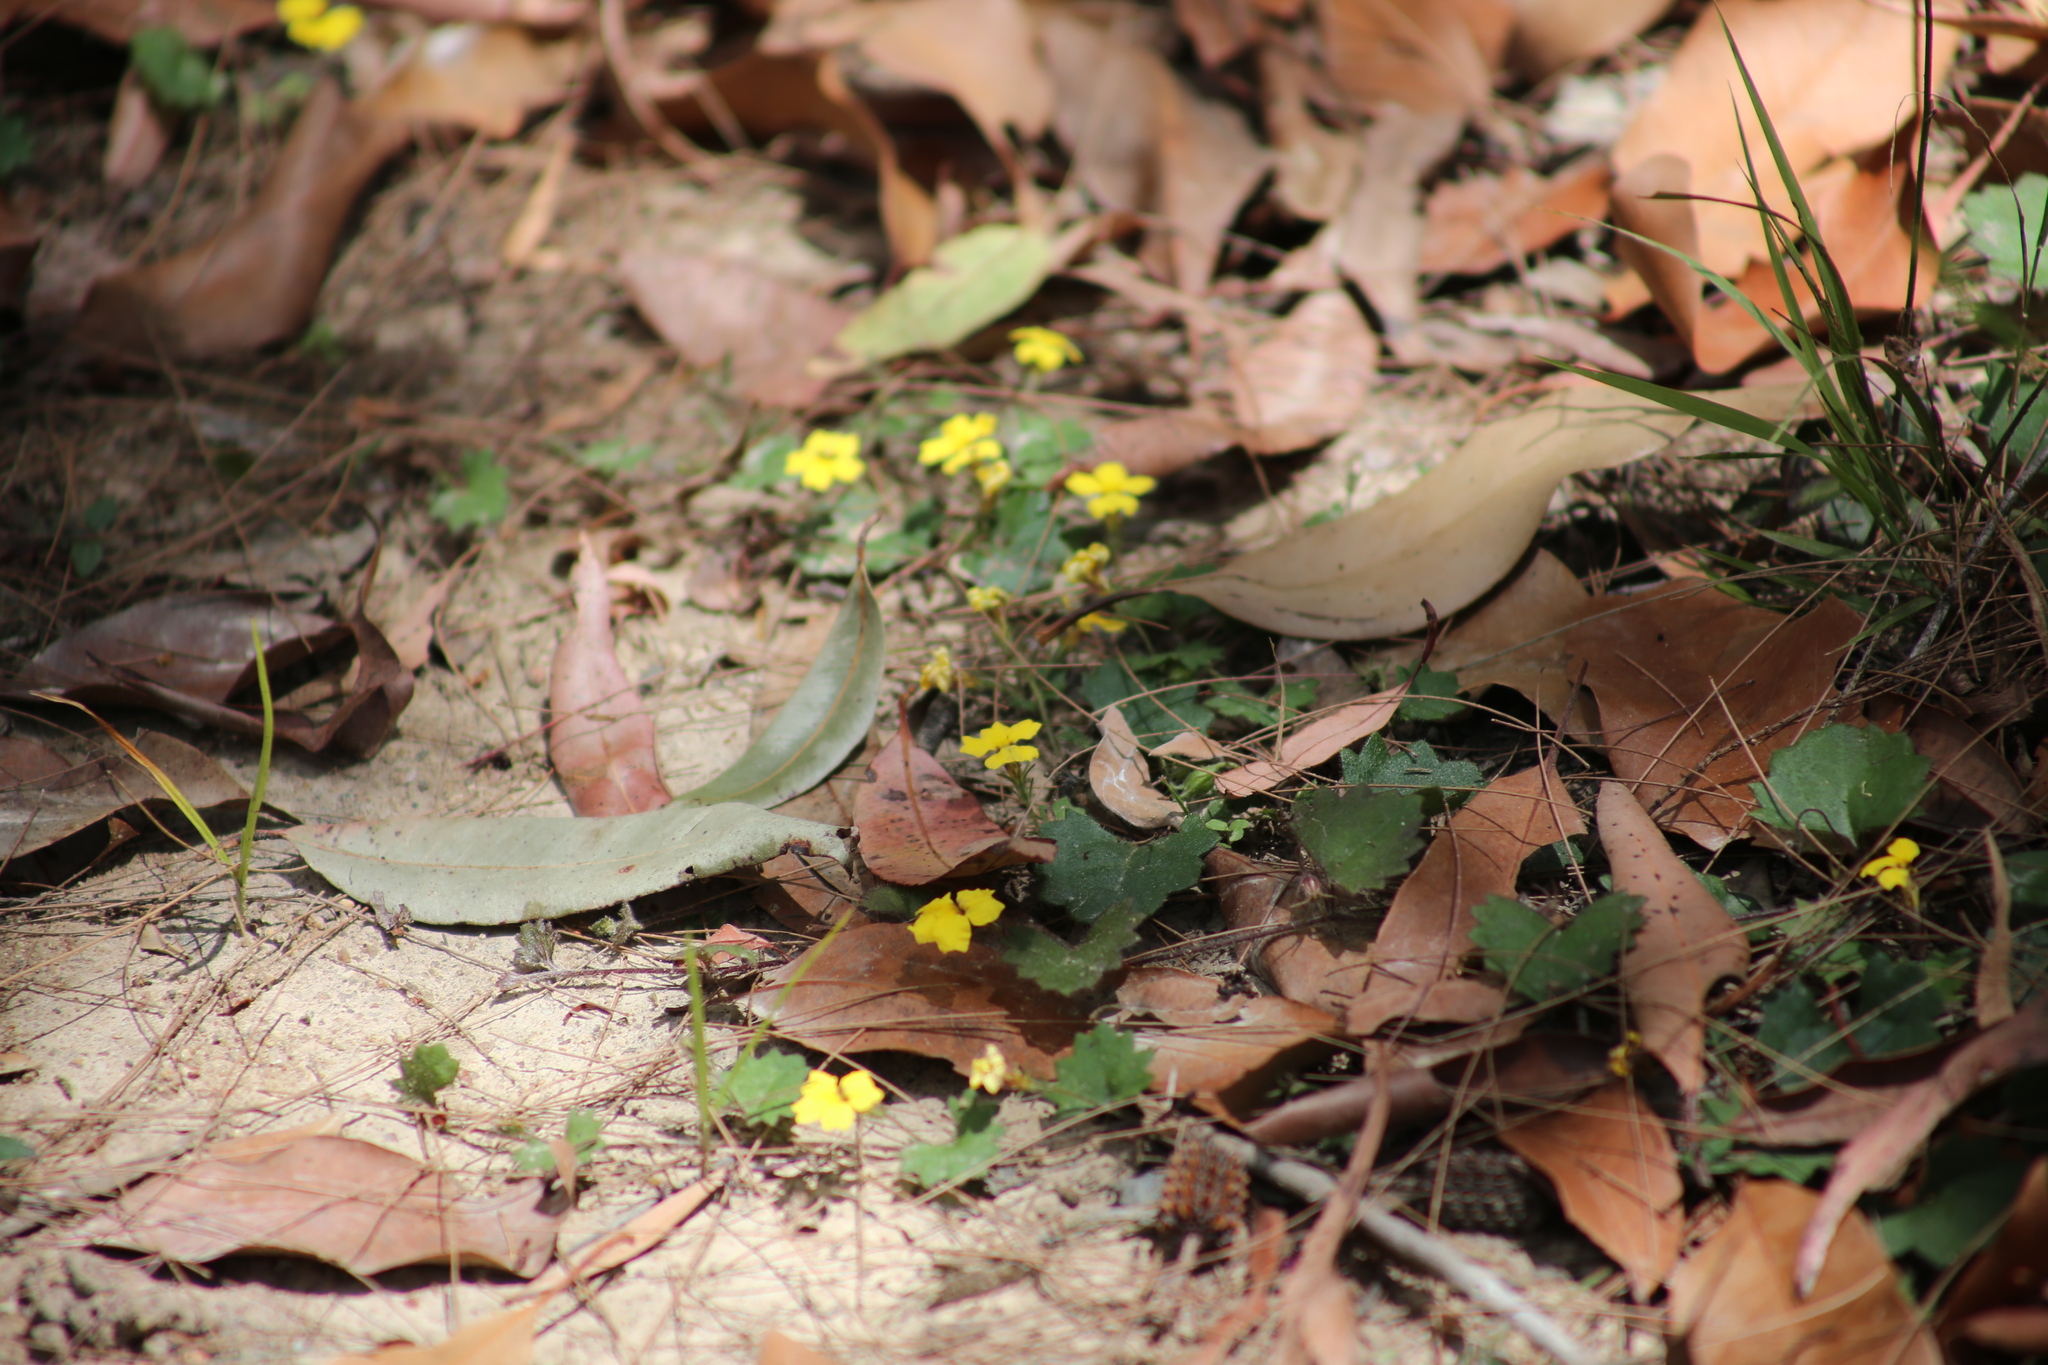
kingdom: Plantae
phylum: Tracheophyta
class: Magnoliopsida
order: Asterales
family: Goodeniaceae
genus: Goodenia
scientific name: Goodenia rotundifolia
